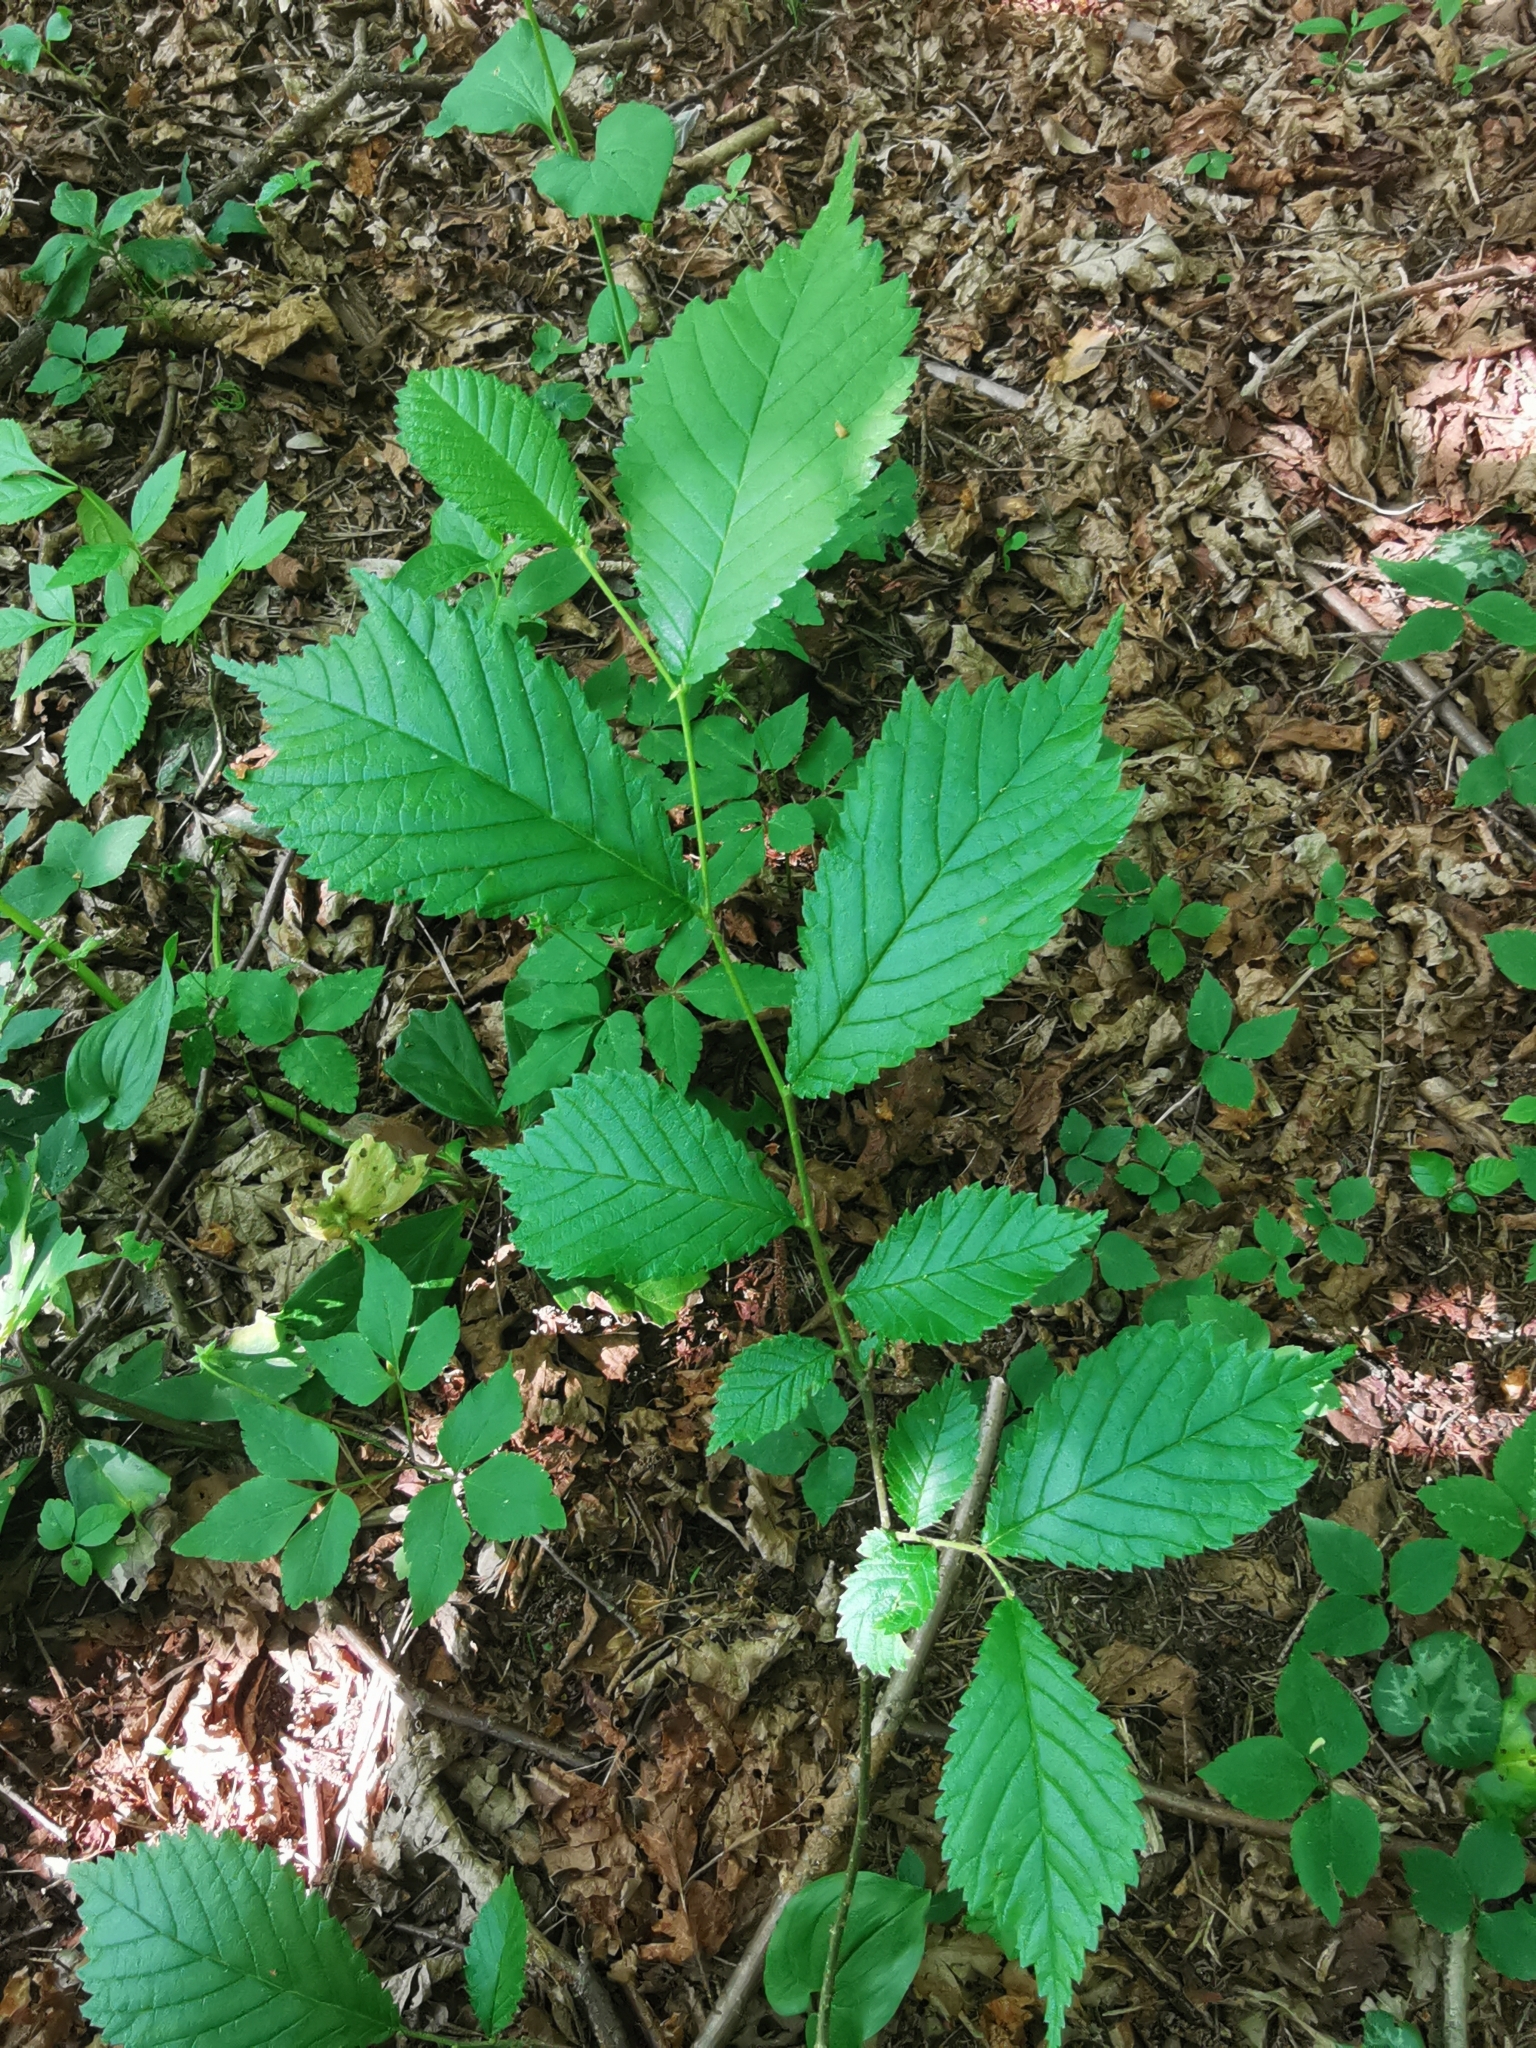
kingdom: Plantae
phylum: Tracheophyta
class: Magnoliopsida
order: Rosales
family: Ulmaceae
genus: Ulmus
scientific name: Ulmus glabra
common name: Wych elm
